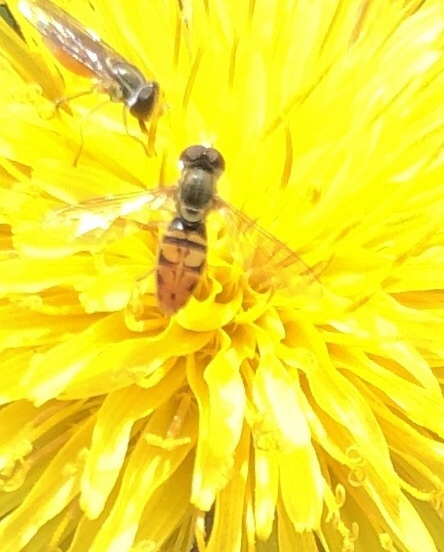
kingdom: Animalia
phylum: Arthropoda
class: Insecta
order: Diptera
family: Syrphidae
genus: Toxomerus
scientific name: Toxomerus marginatus
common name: Syrphid fly
